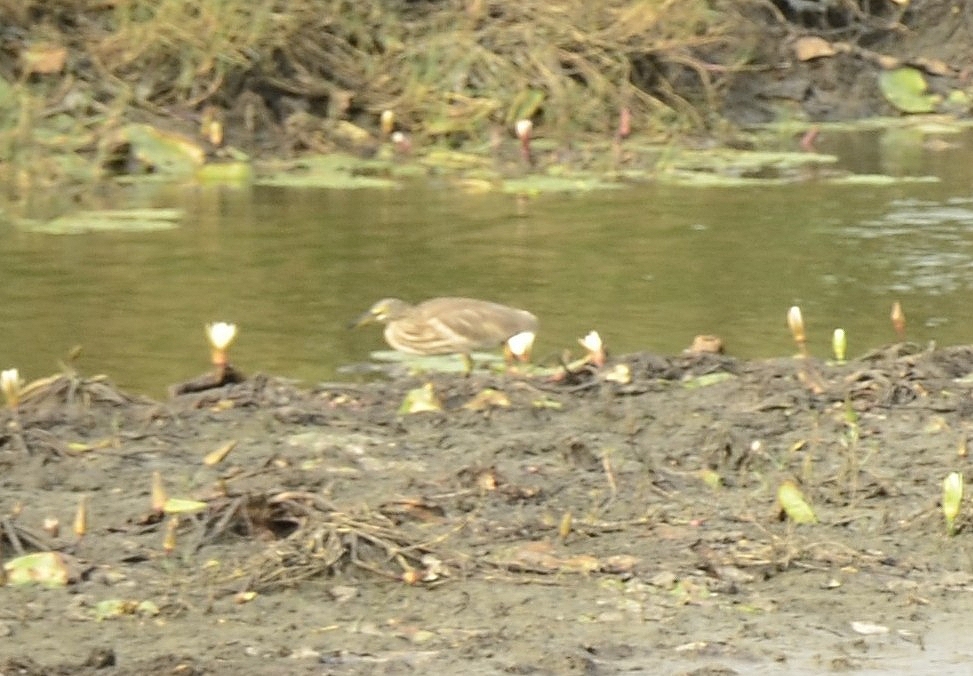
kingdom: Animalia
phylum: Chordata
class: Aves
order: Pelecaniformes
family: Ardeidae
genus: Ardeola
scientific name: Ardeola grayii
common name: Indian pond heron
